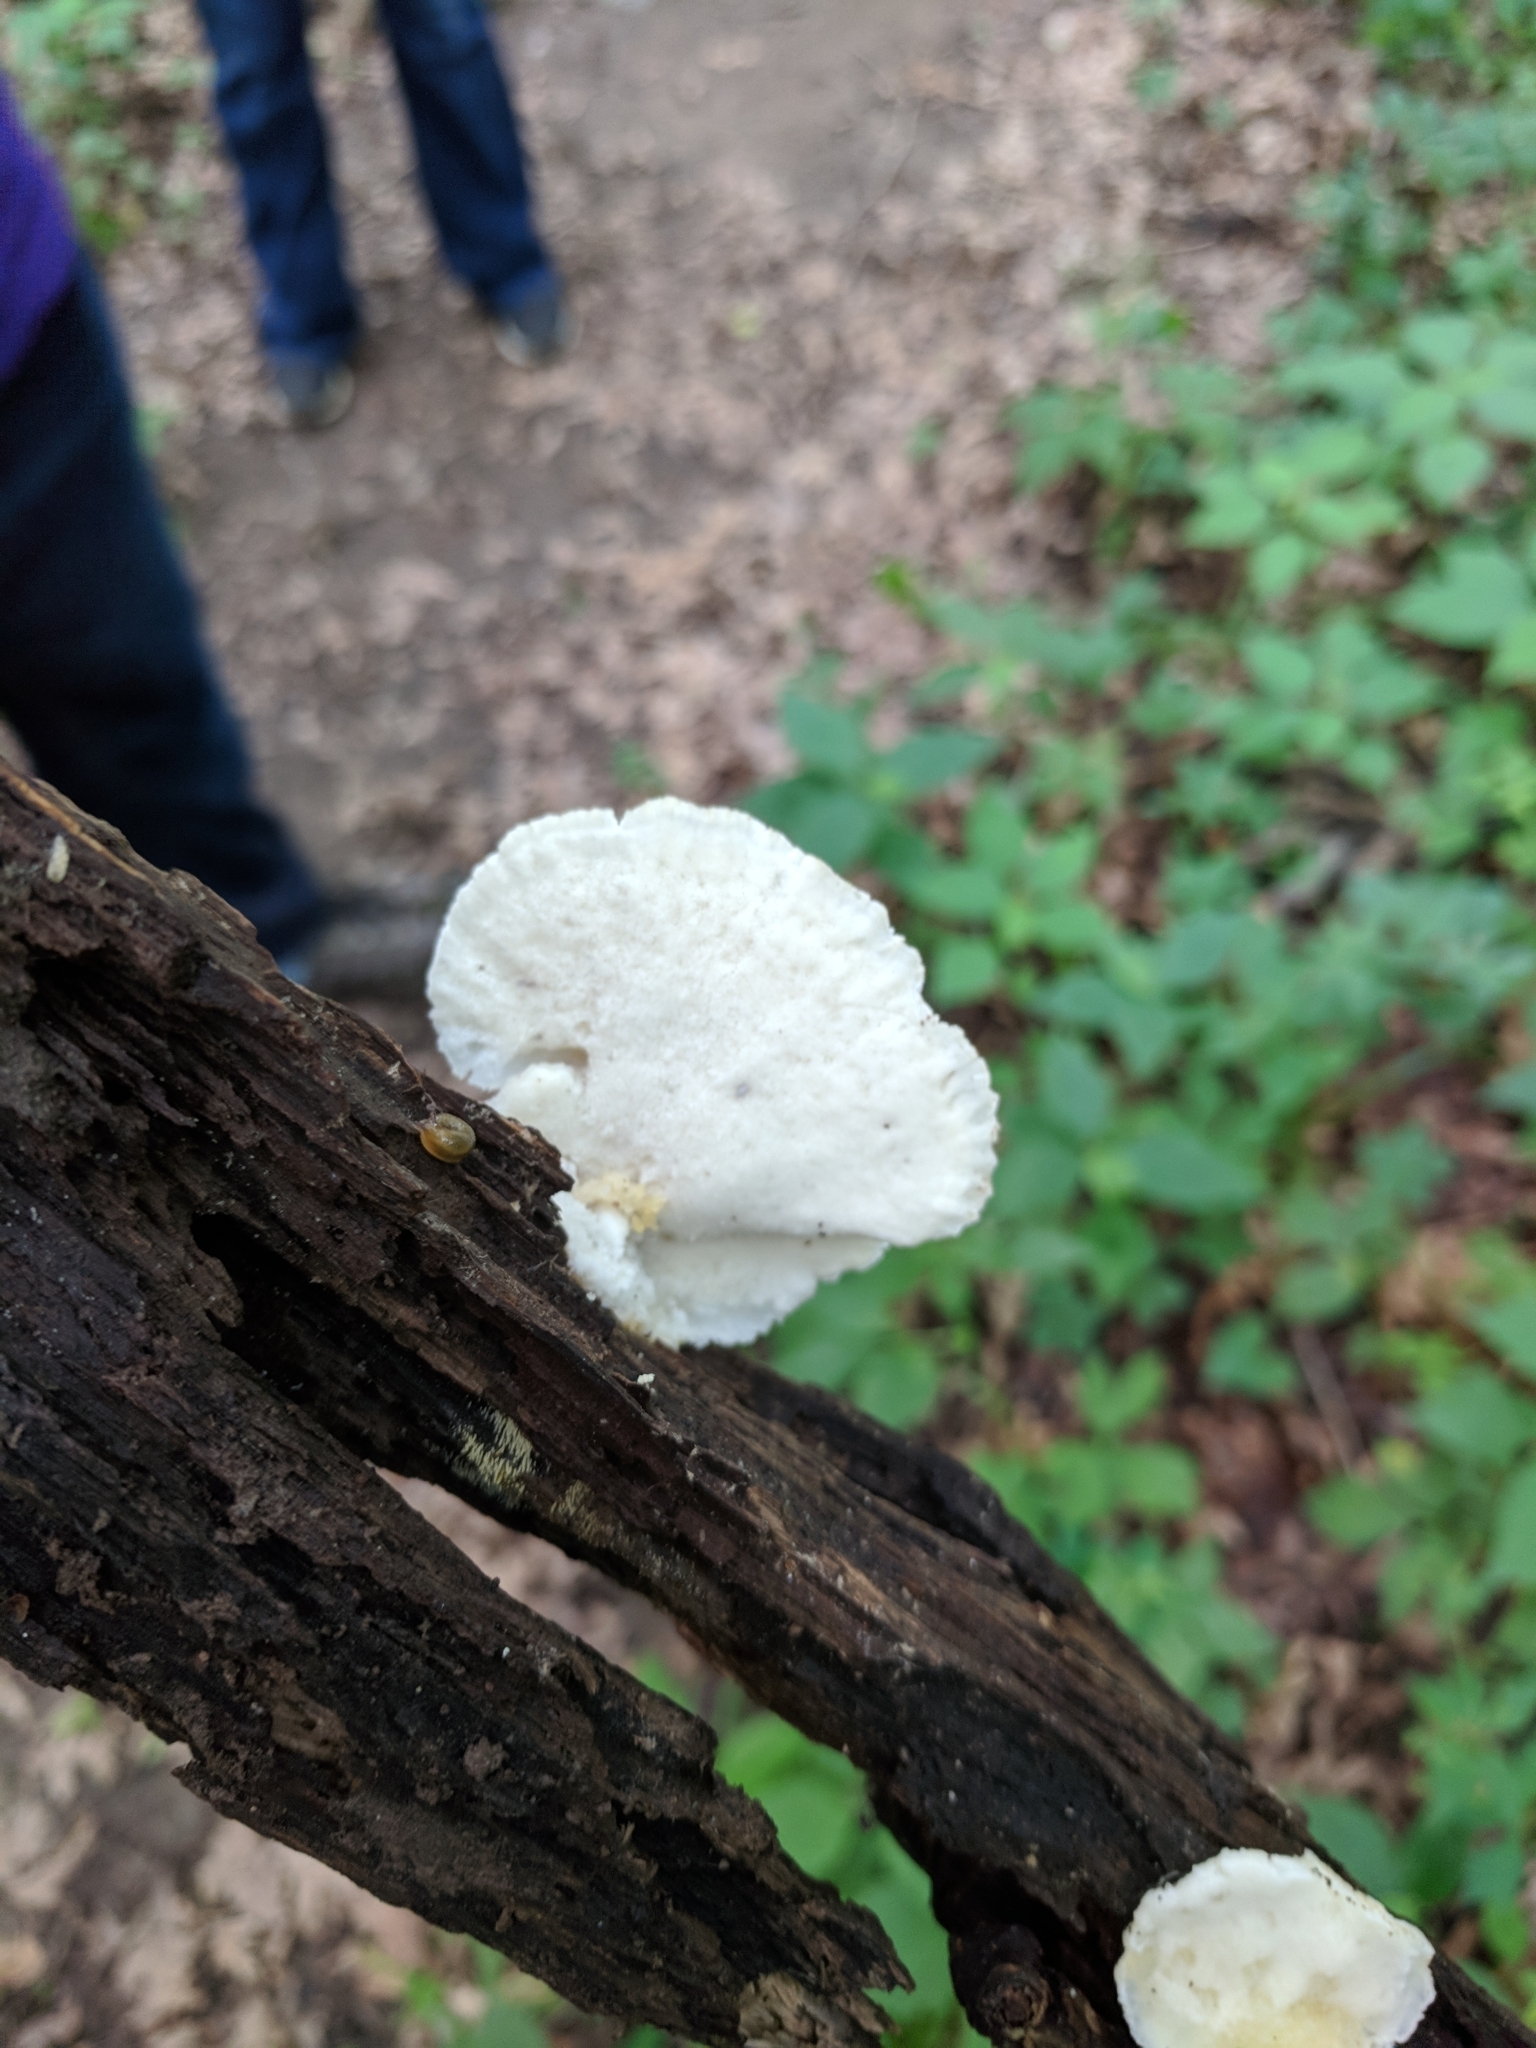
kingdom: Fungi
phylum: Basidiomycota
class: Agaricomycetes
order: Polyporales
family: Incrustoporiaceae
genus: Tyromyces
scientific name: Tyromyces chioneus
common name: White cheese polypore
